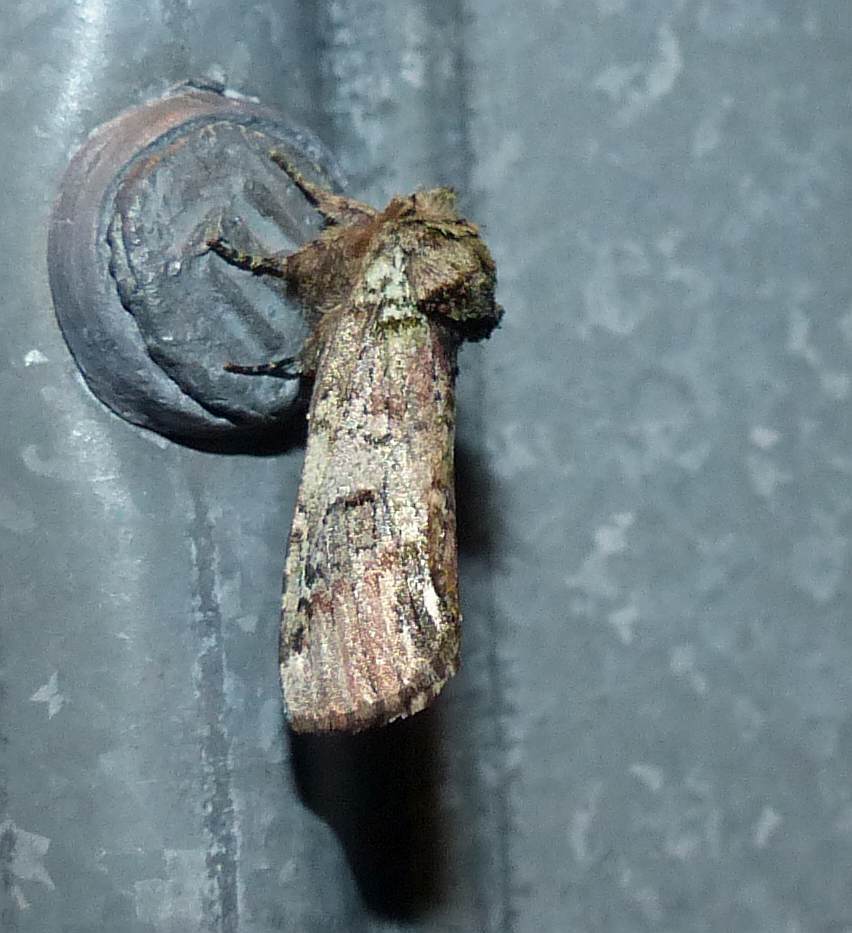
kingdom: Animalia
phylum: Arthropoda
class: Insecta
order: Lepidoptera
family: Notodontidae
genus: Schizura
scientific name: Schizura
